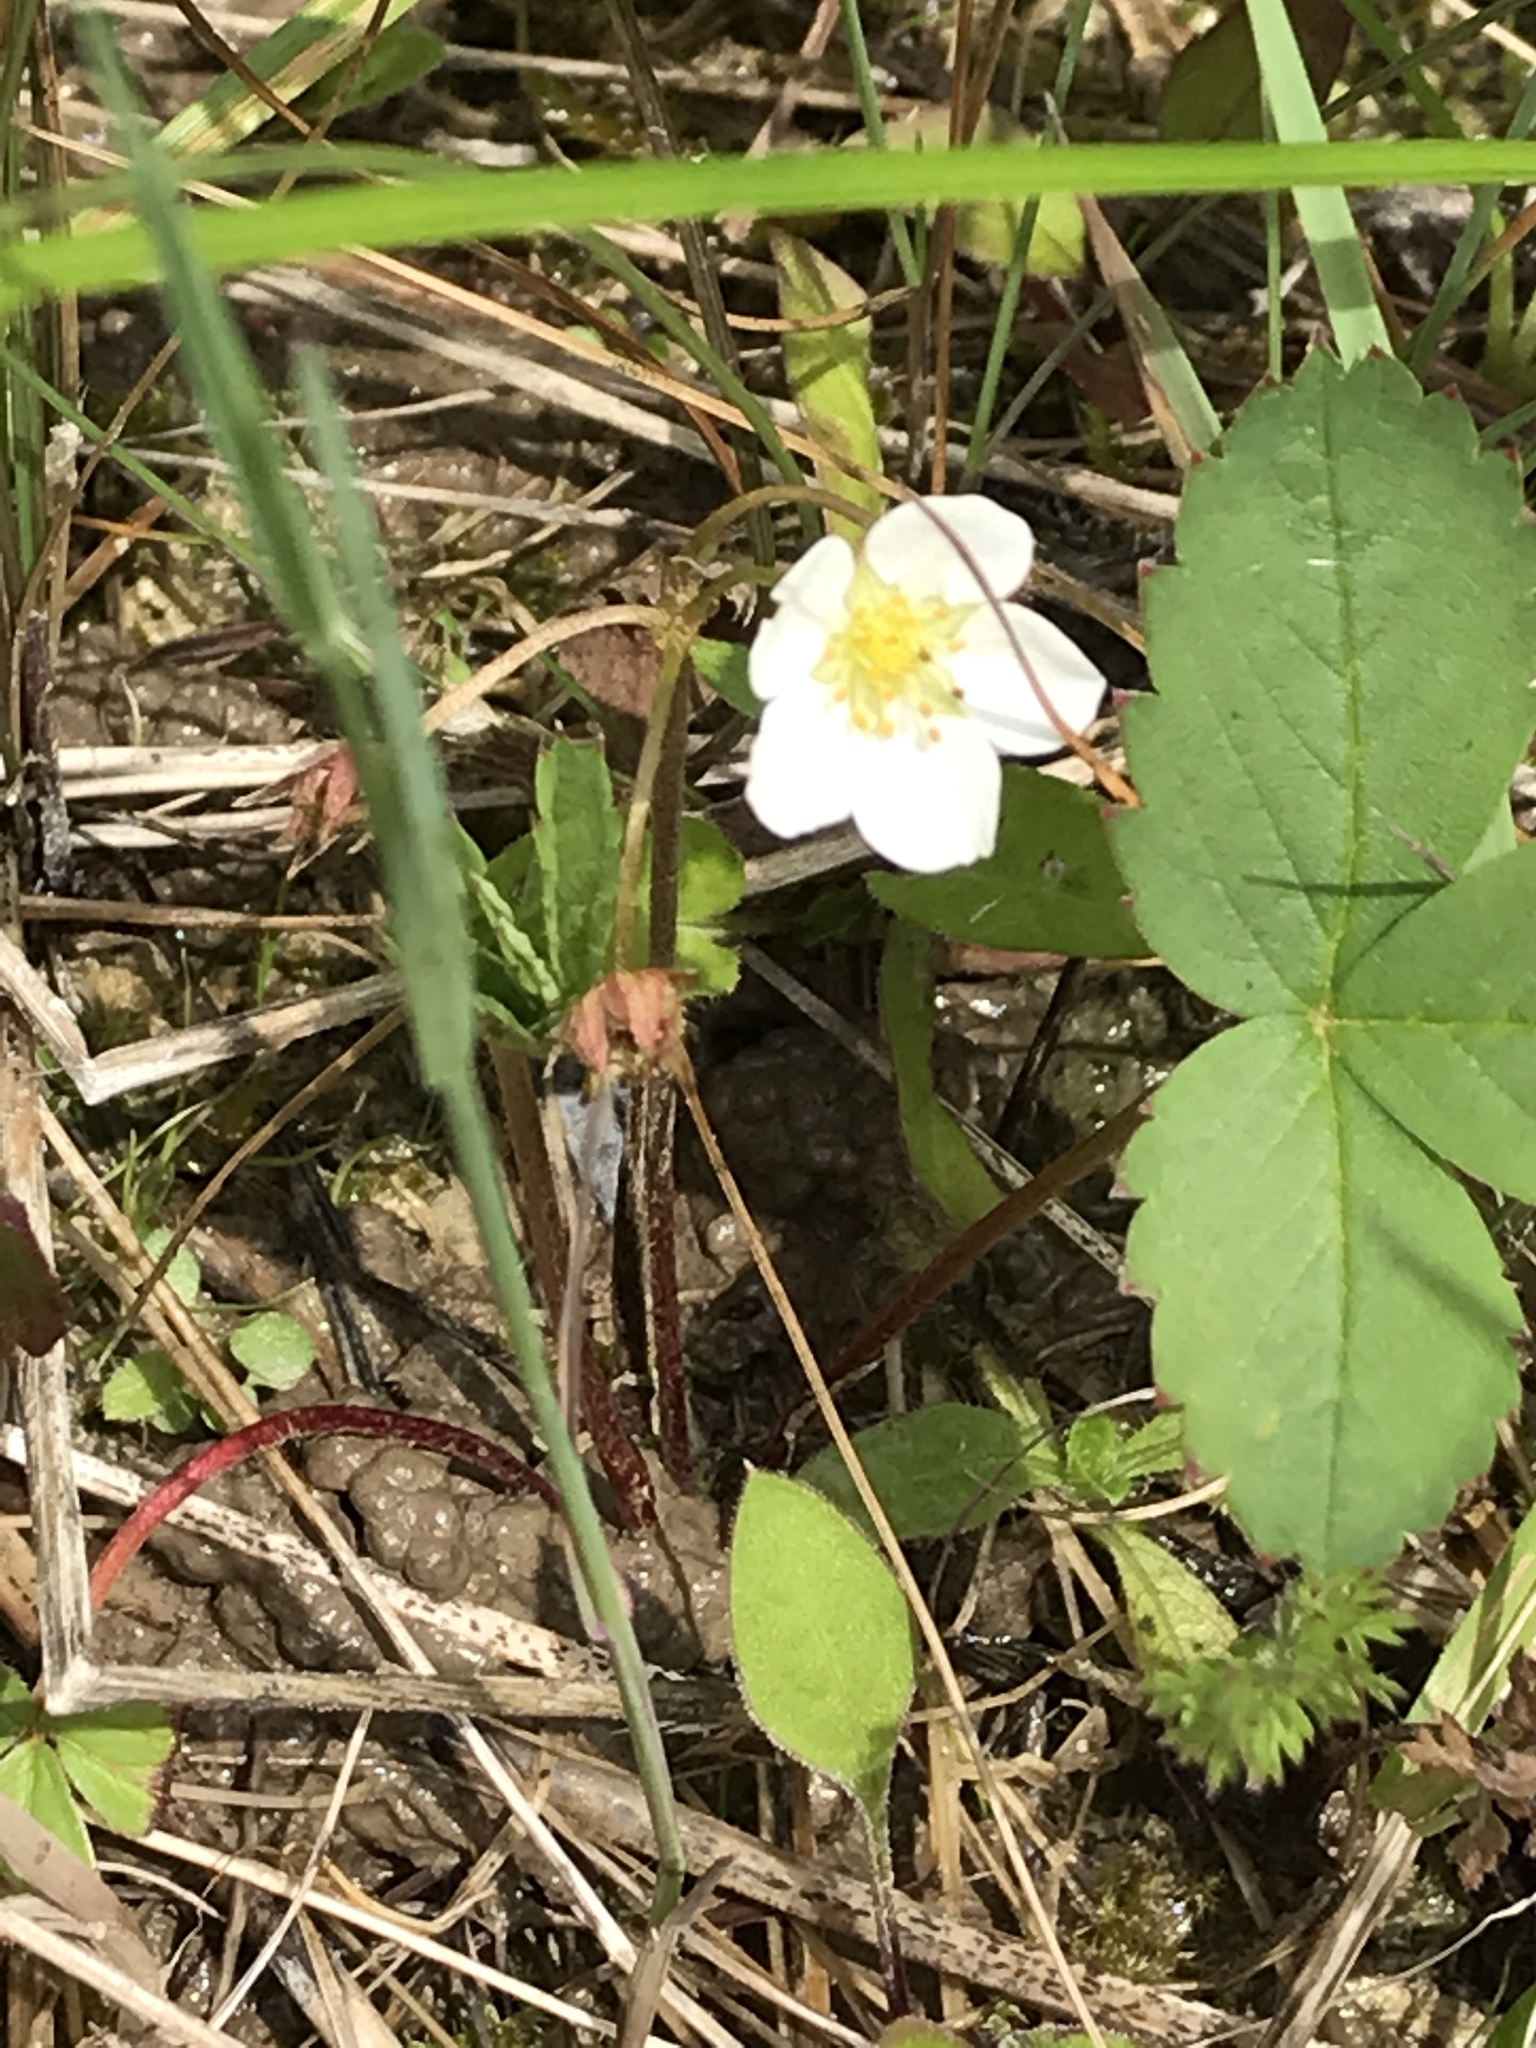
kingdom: Plantae
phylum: Tracheophyta
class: Magnoliopsida
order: Rosales
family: Rosaceae
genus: Fragaria
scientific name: Fragaria vesca
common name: Wild strawberry
